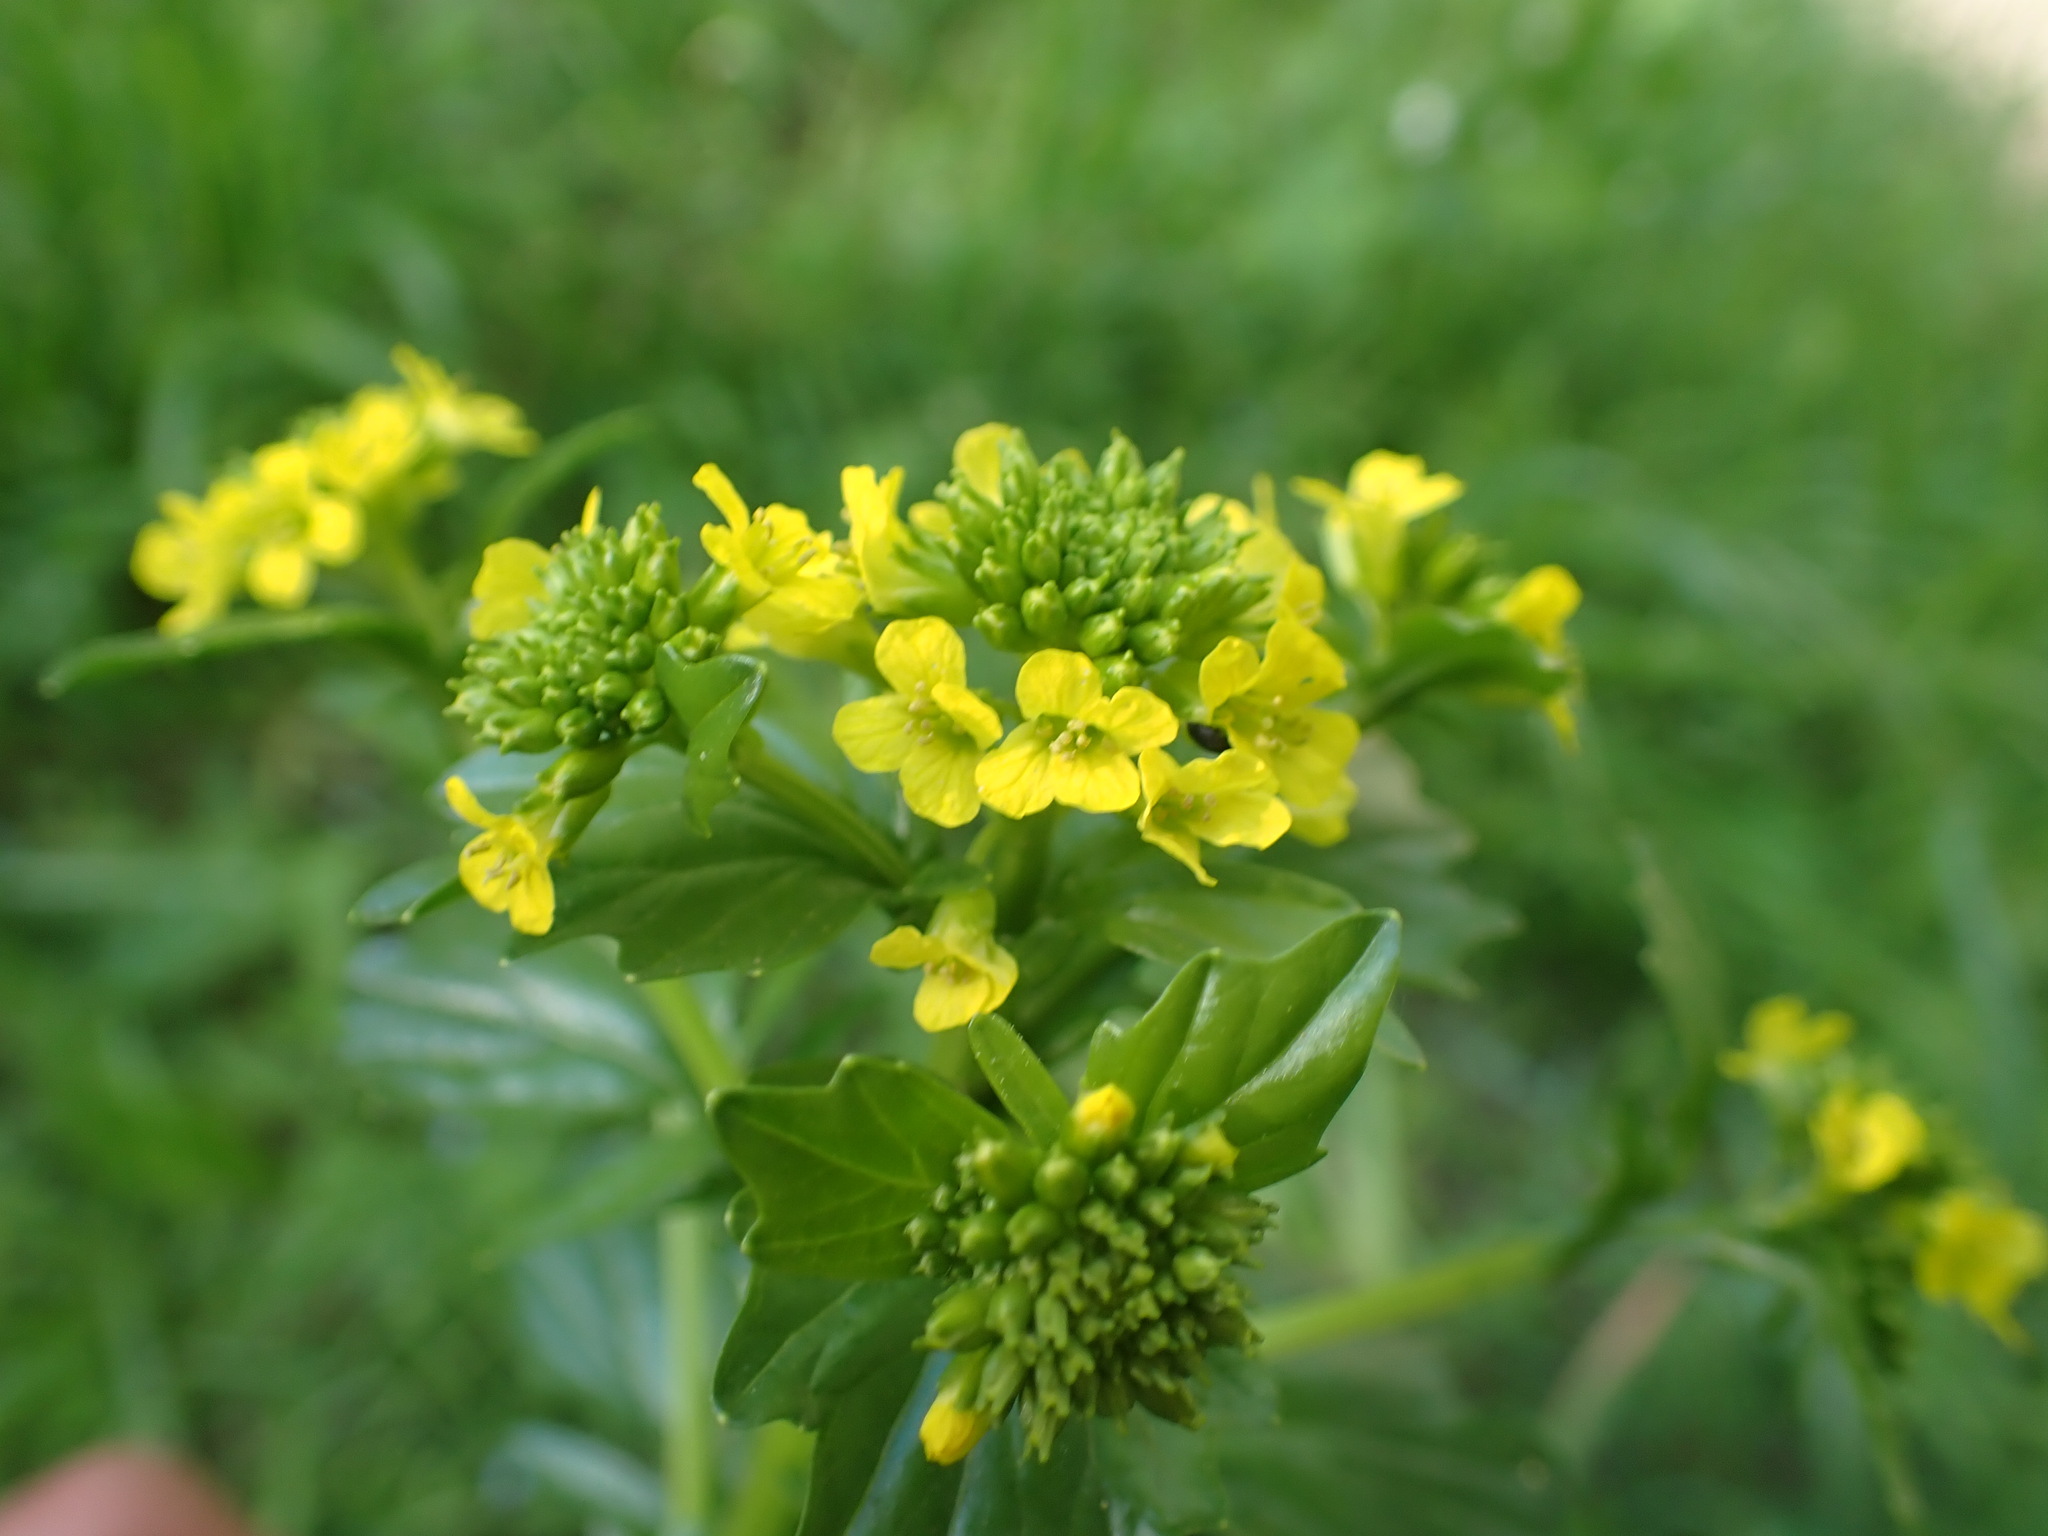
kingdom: Plantae
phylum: Tracheophyta
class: Magnoliopsida
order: Brassicales
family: Brassicaceae
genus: Barbarea
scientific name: Barbarea vulgaris
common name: Cressy-greens
